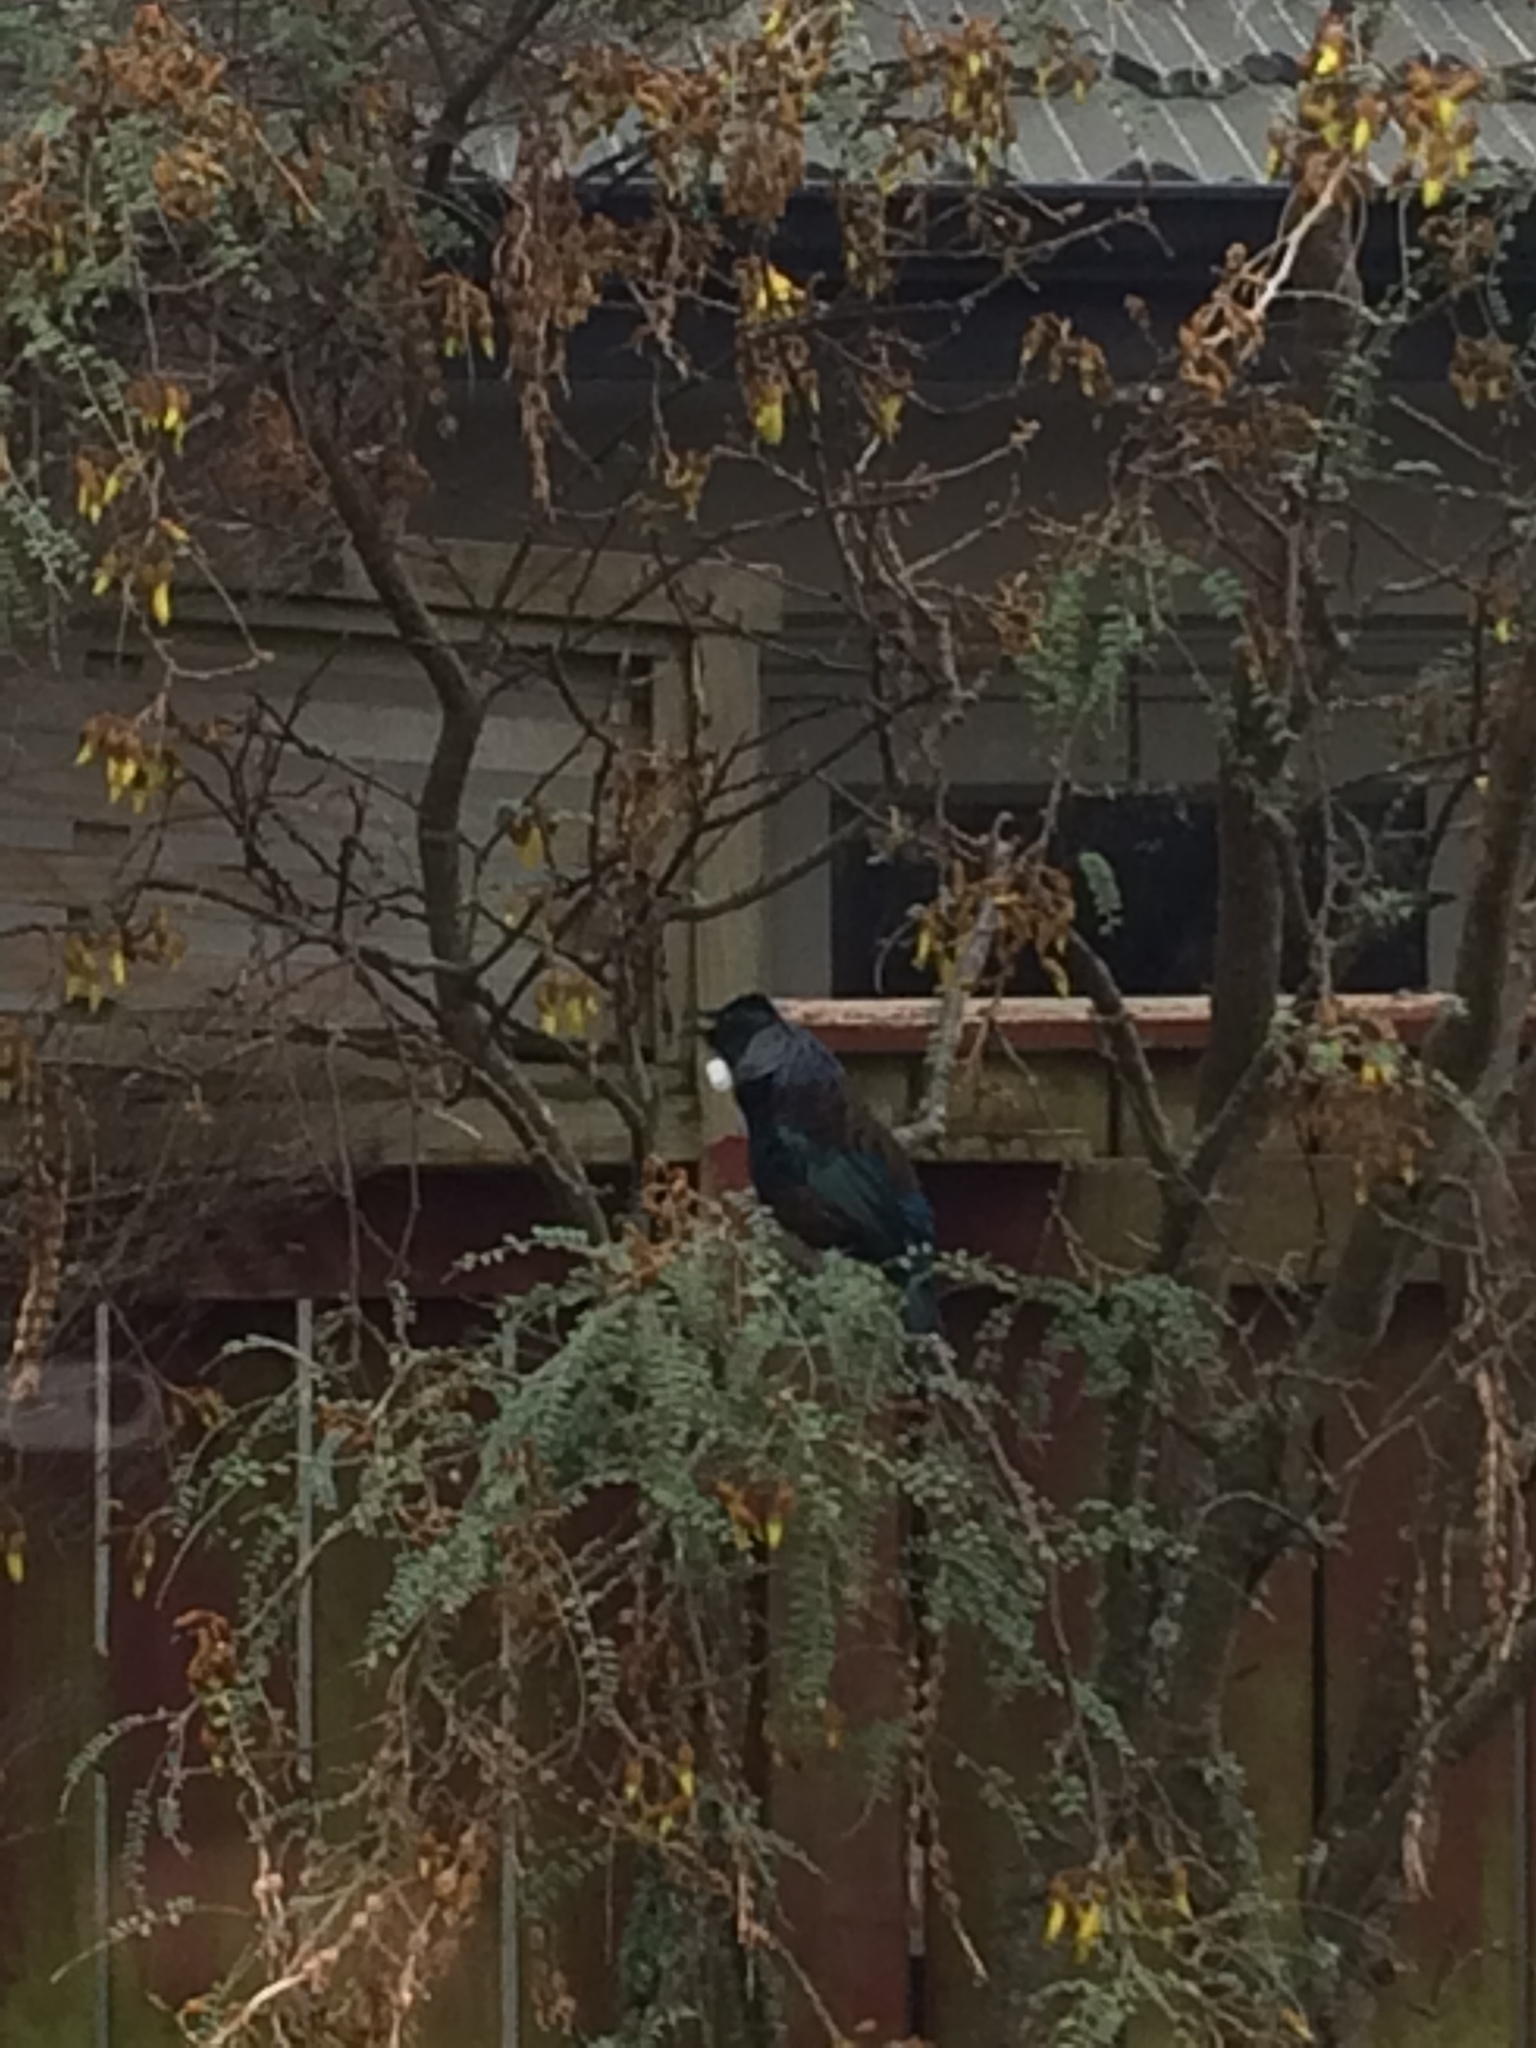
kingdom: Animalia
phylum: Chordata
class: Aves
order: Passeriformes
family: Meliphagidae
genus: Prosthemadera
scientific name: Prosthemadera novaeseelandiae
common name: Tui
